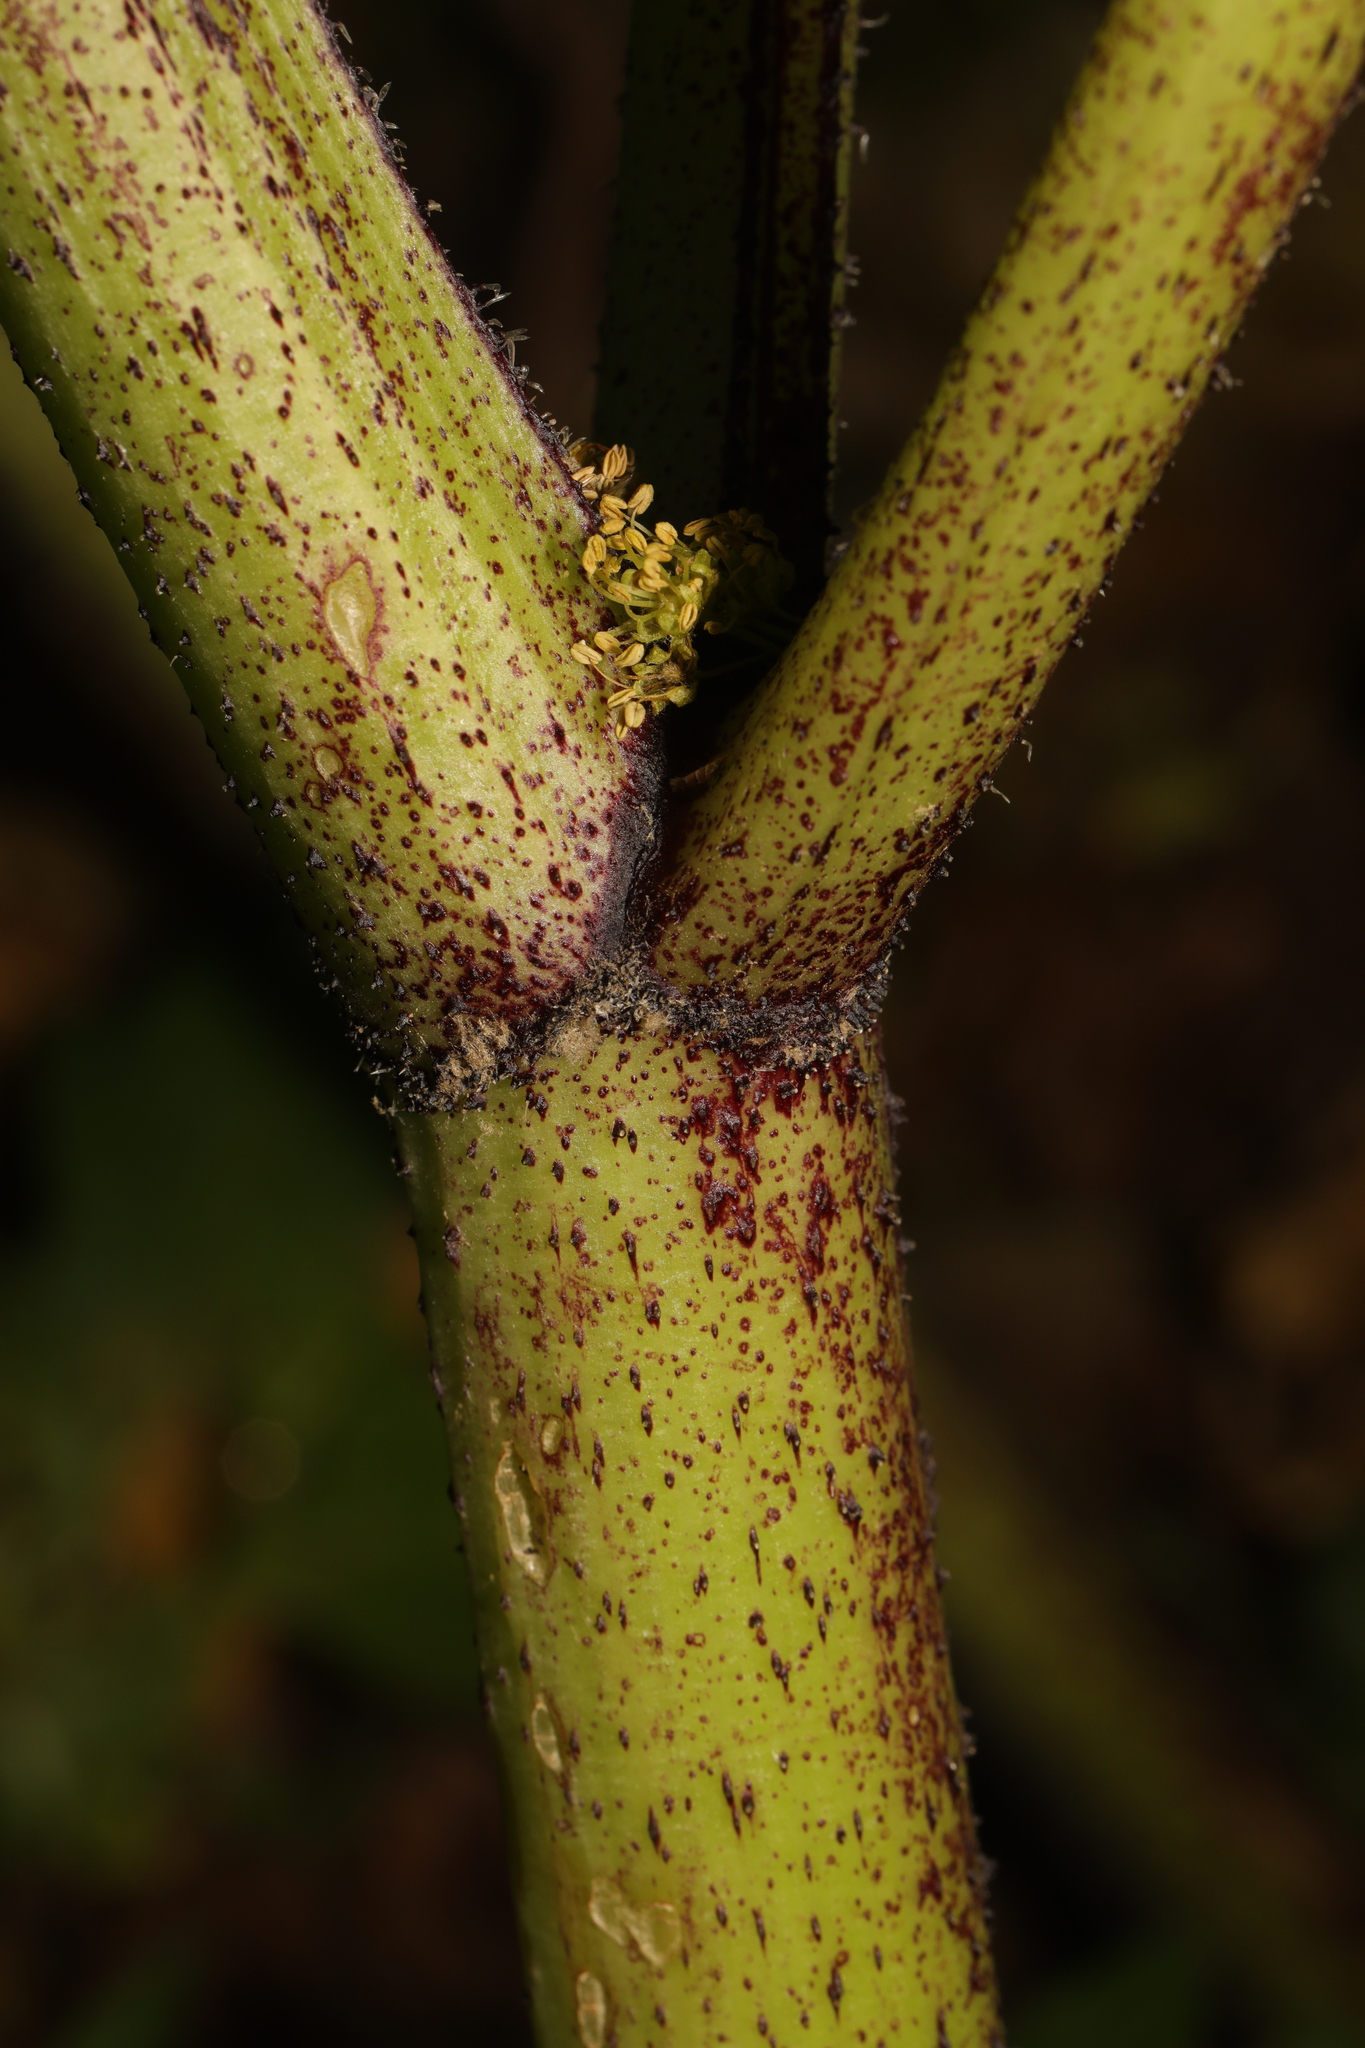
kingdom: Plantae
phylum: Tracheophyta
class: Magnoliopsida
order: Apiales
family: Apiaceae
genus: Heracleum
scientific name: Heracleum mantegazzianum
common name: Giant hogweed
